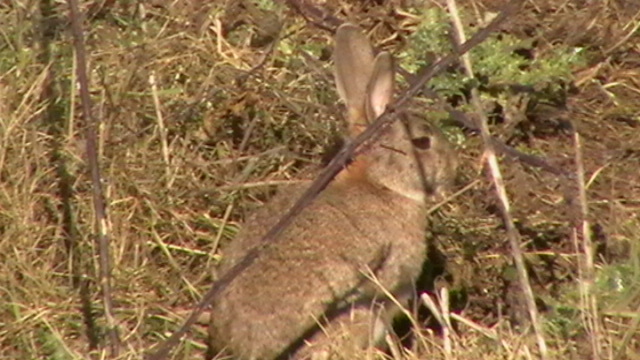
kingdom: Animalia
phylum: Chordata
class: Mammalia
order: Lagomorpha
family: Leporidae
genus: Oryctolagus
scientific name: Oryctolagus cuniculus
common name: European rabbit
